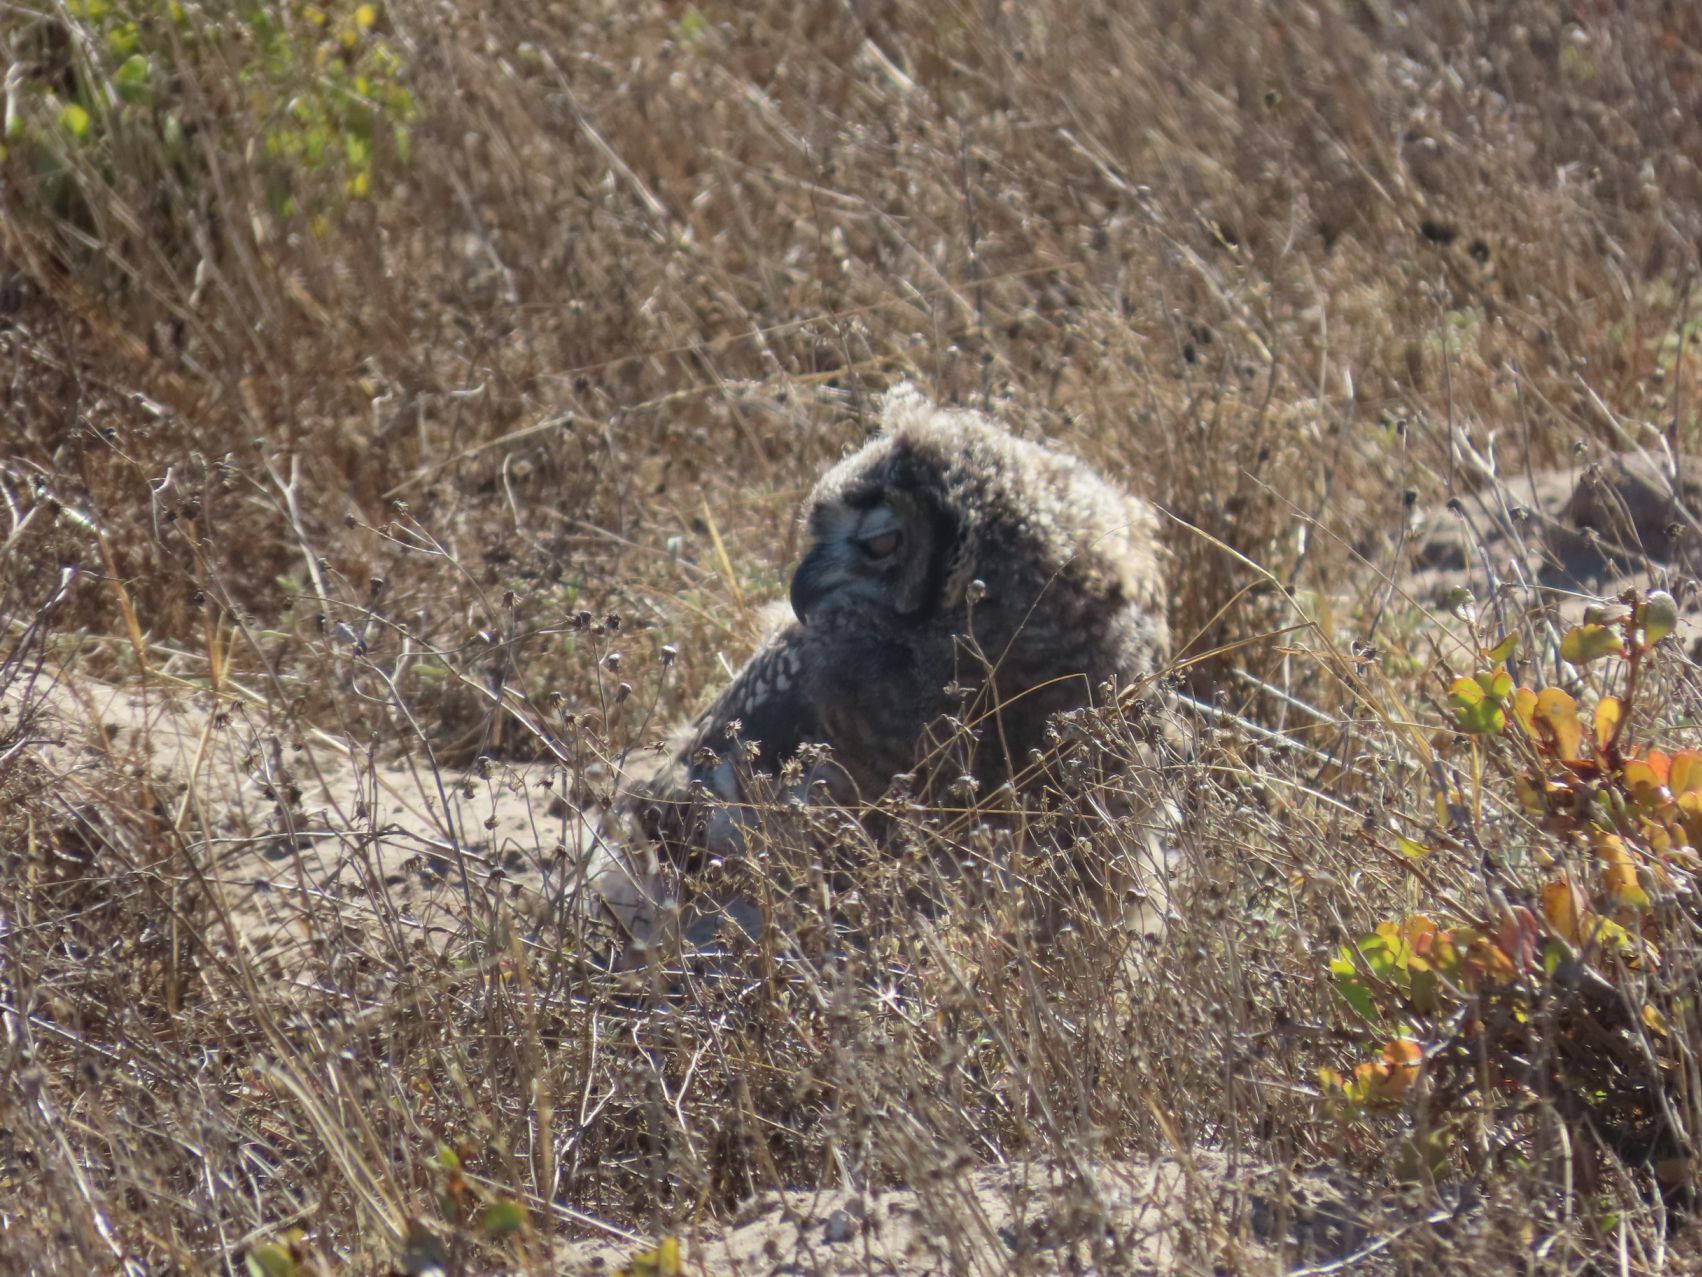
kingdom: Animalia
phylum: Chordata
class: Aves
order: Strigiformes
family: Strigidae
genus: Bubo
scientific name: Bubo africanus
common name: Spotted eagle-owl
